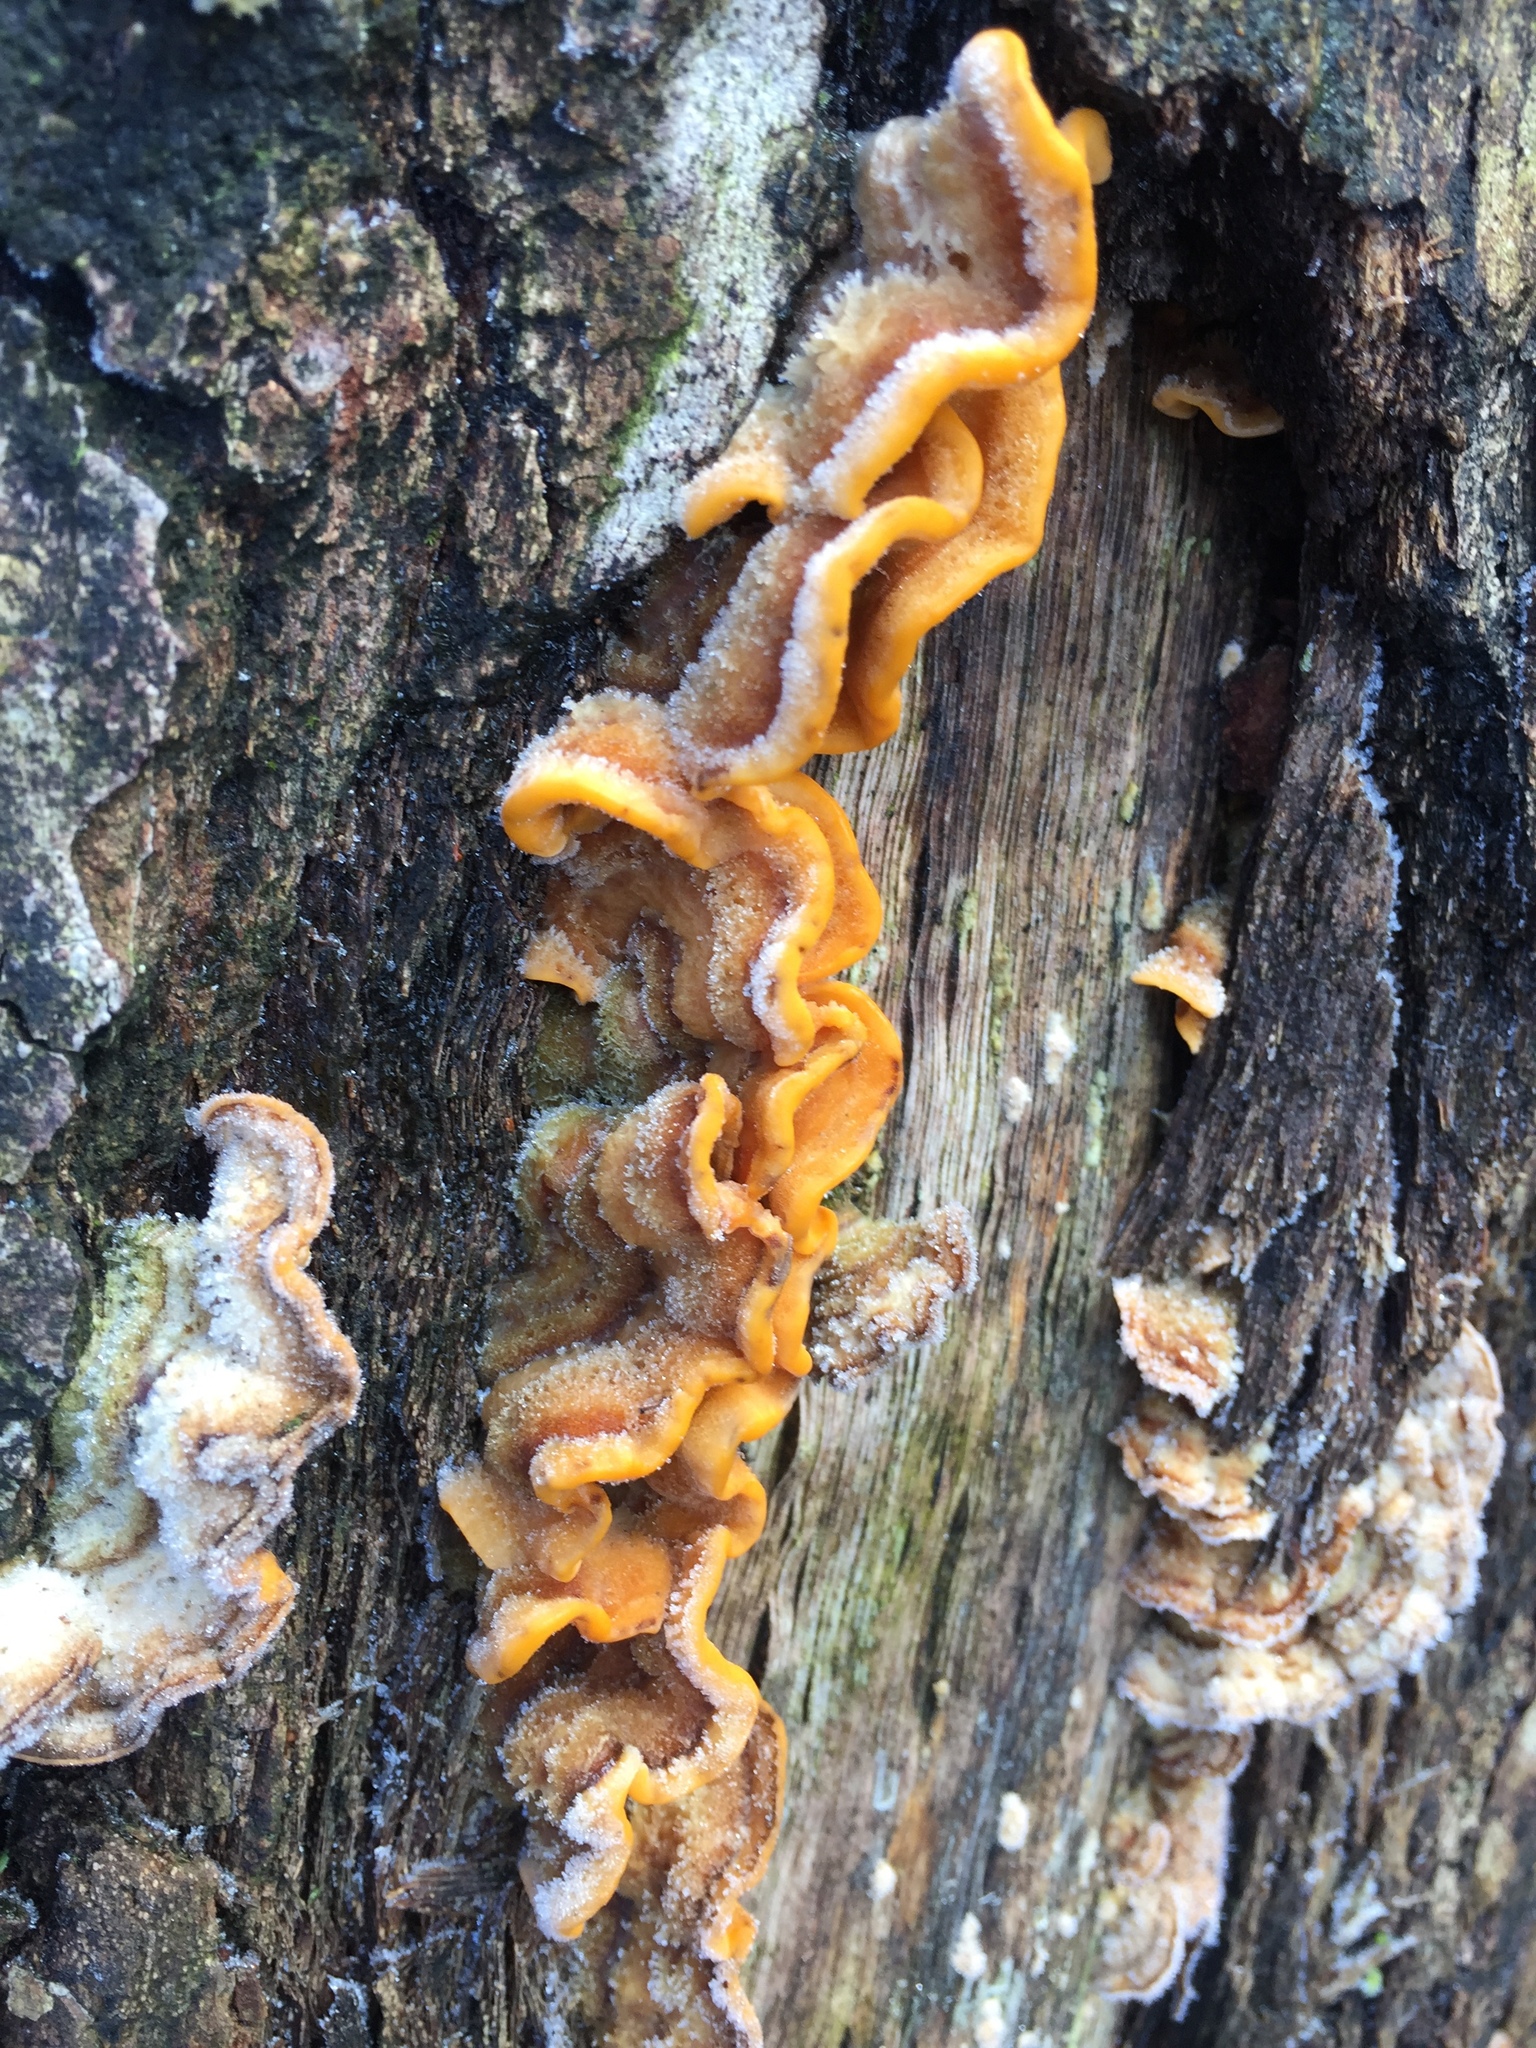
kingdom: Fungi
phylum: Basidiomycota
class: Agaricomycetes
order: Russulales
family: Stereaceae
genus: Stereum
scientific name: Stereum hirsutum
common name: Hairy curtain crust
